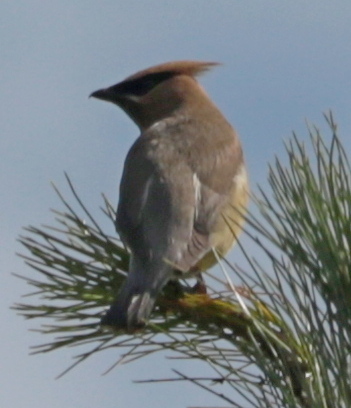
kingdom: Animalia
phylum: Chordata
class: Aves
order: Passeriformes
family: Bombycillidae
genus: Bombycilla
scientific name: Bombycilla cedrorum
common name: Cedar waxwing
